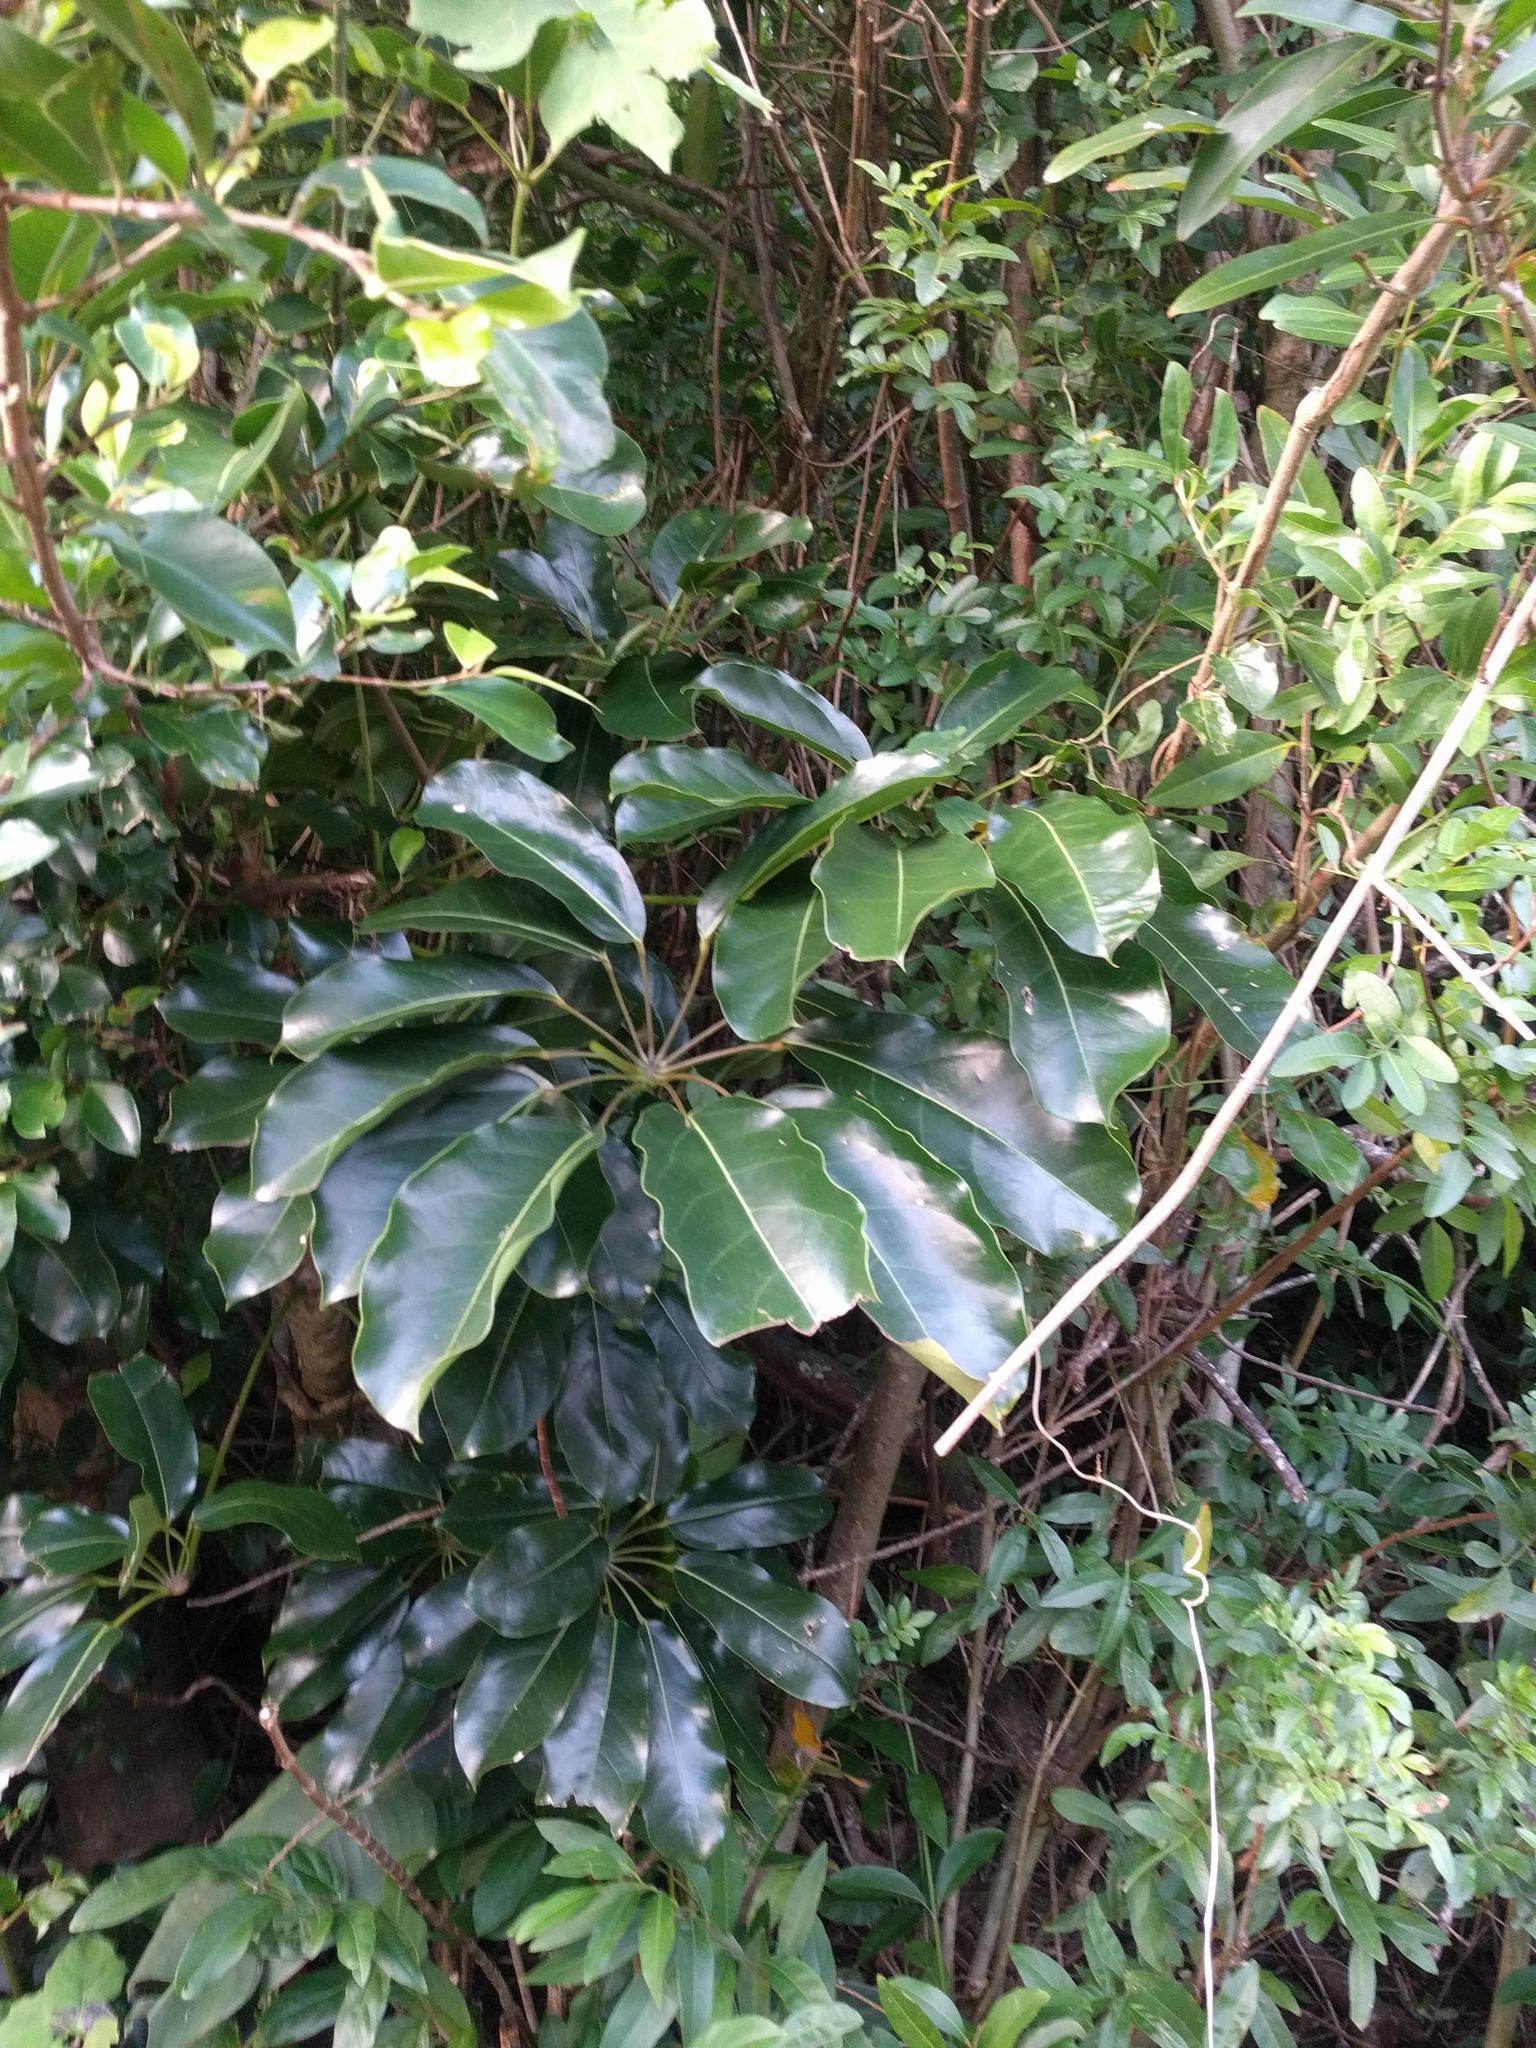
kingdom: Plantae
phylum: Tracheophyta
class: Magnoliopsida
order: Apiales
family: Araliaceae
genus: Heptapleurum
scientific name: Heptapleurum actinophyllum
